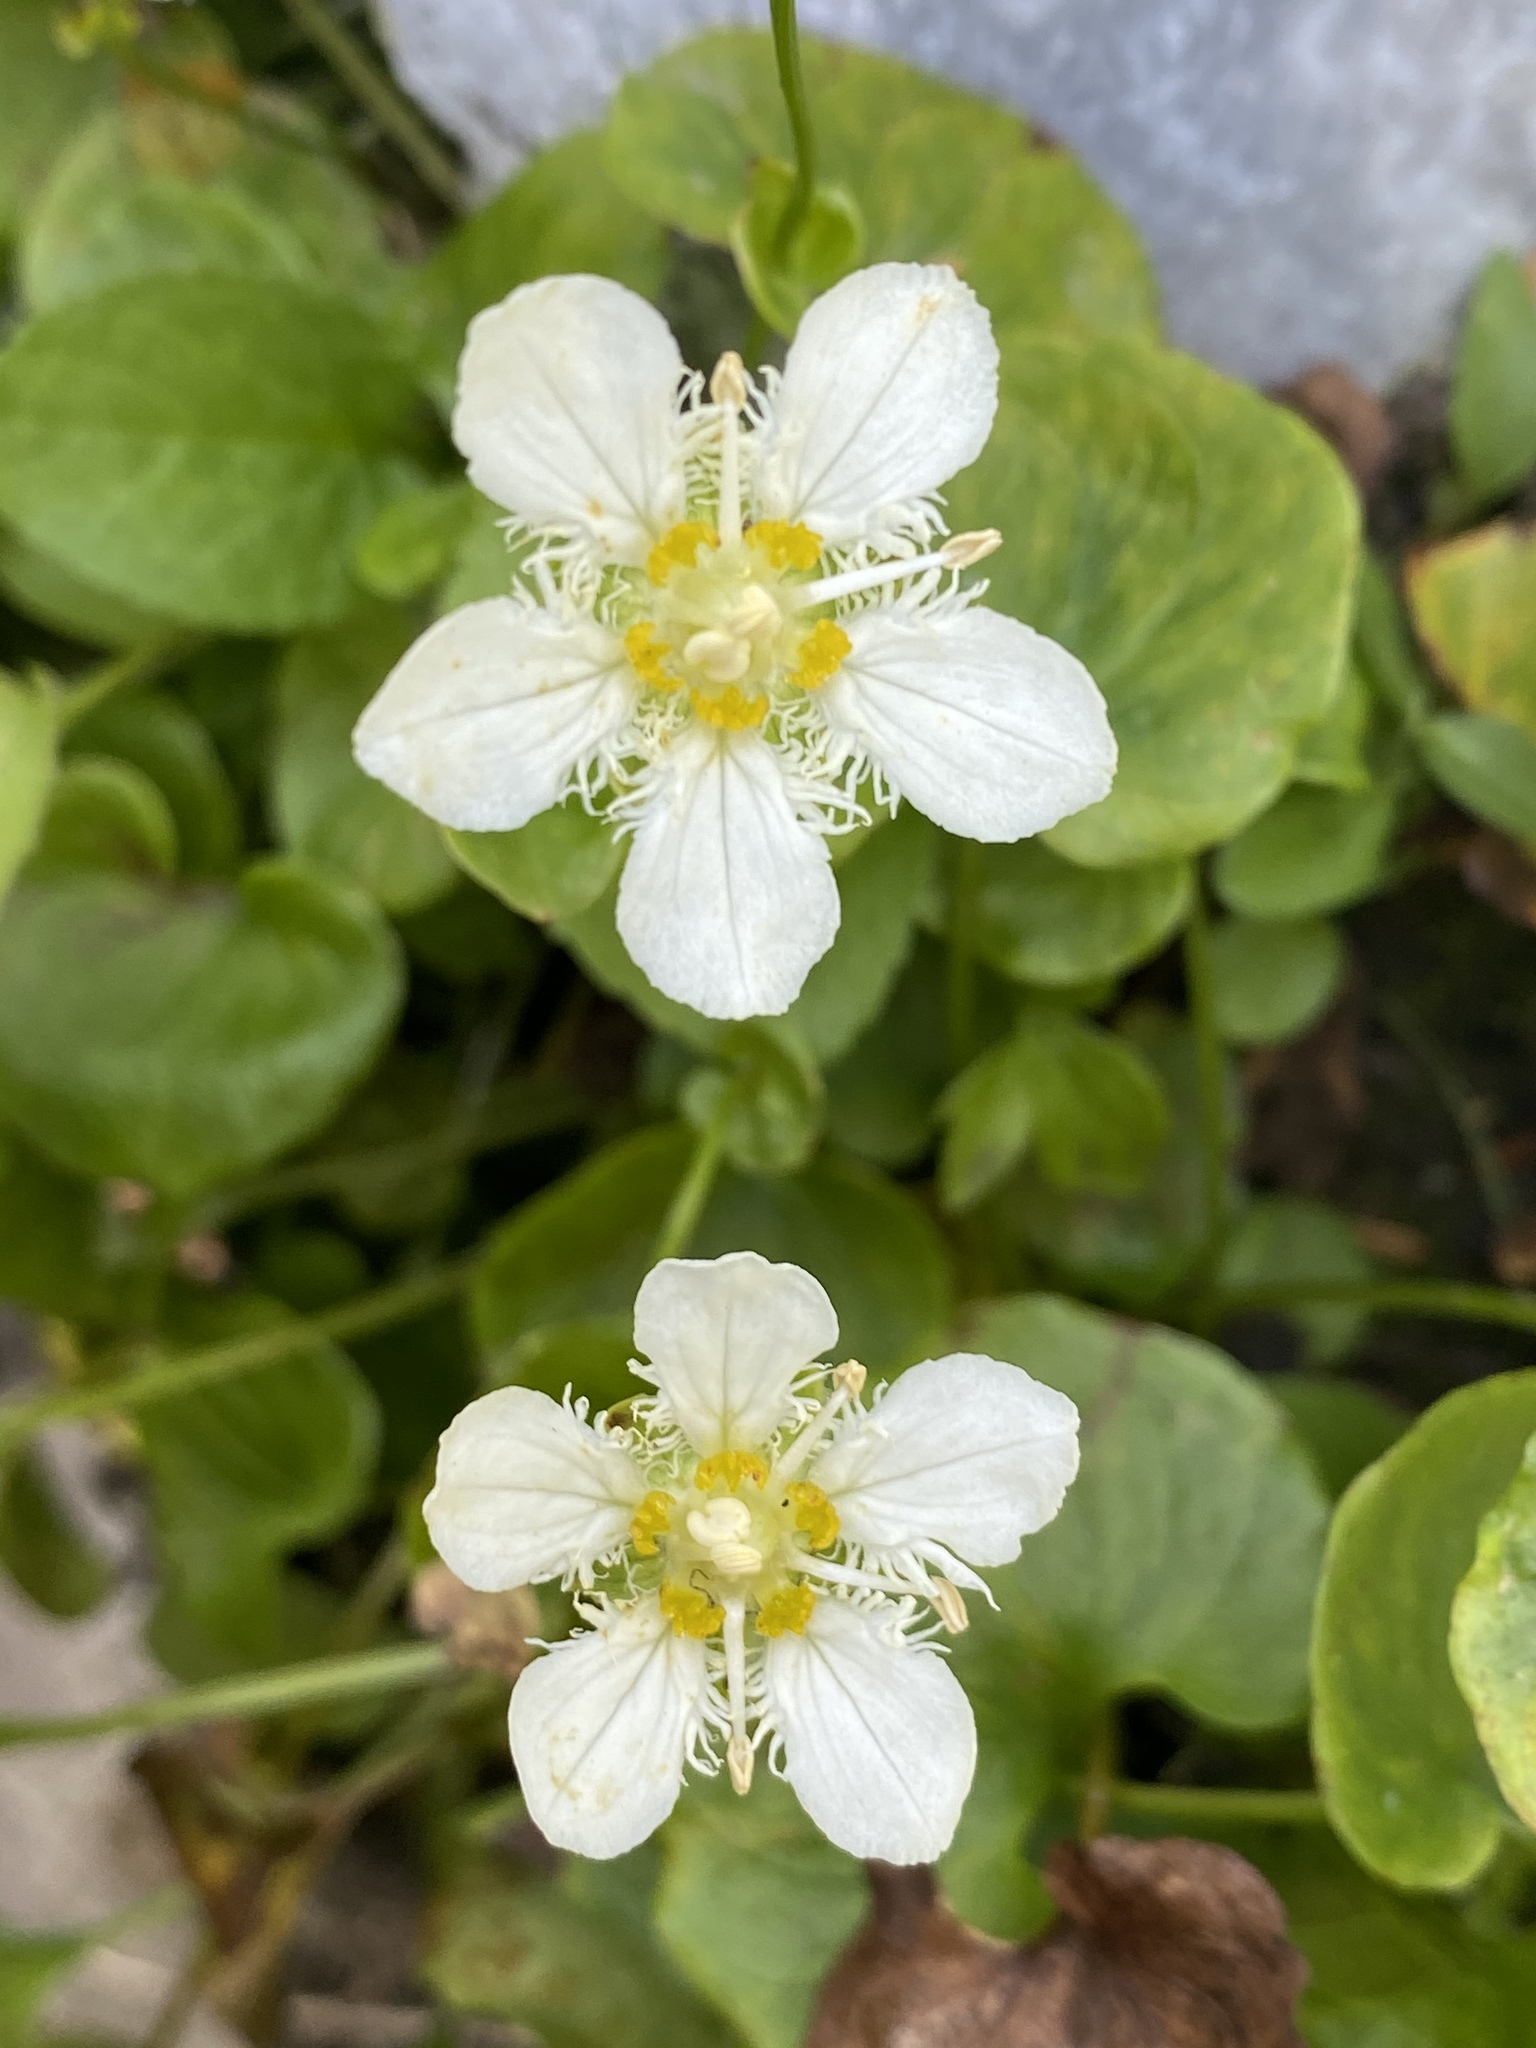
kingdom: Plantae
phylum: Tracheophyta
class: Magnoliopsida
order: Celastrales
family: Parnassiaceae
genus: Parnassia
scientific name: Parnassia fimbriata
